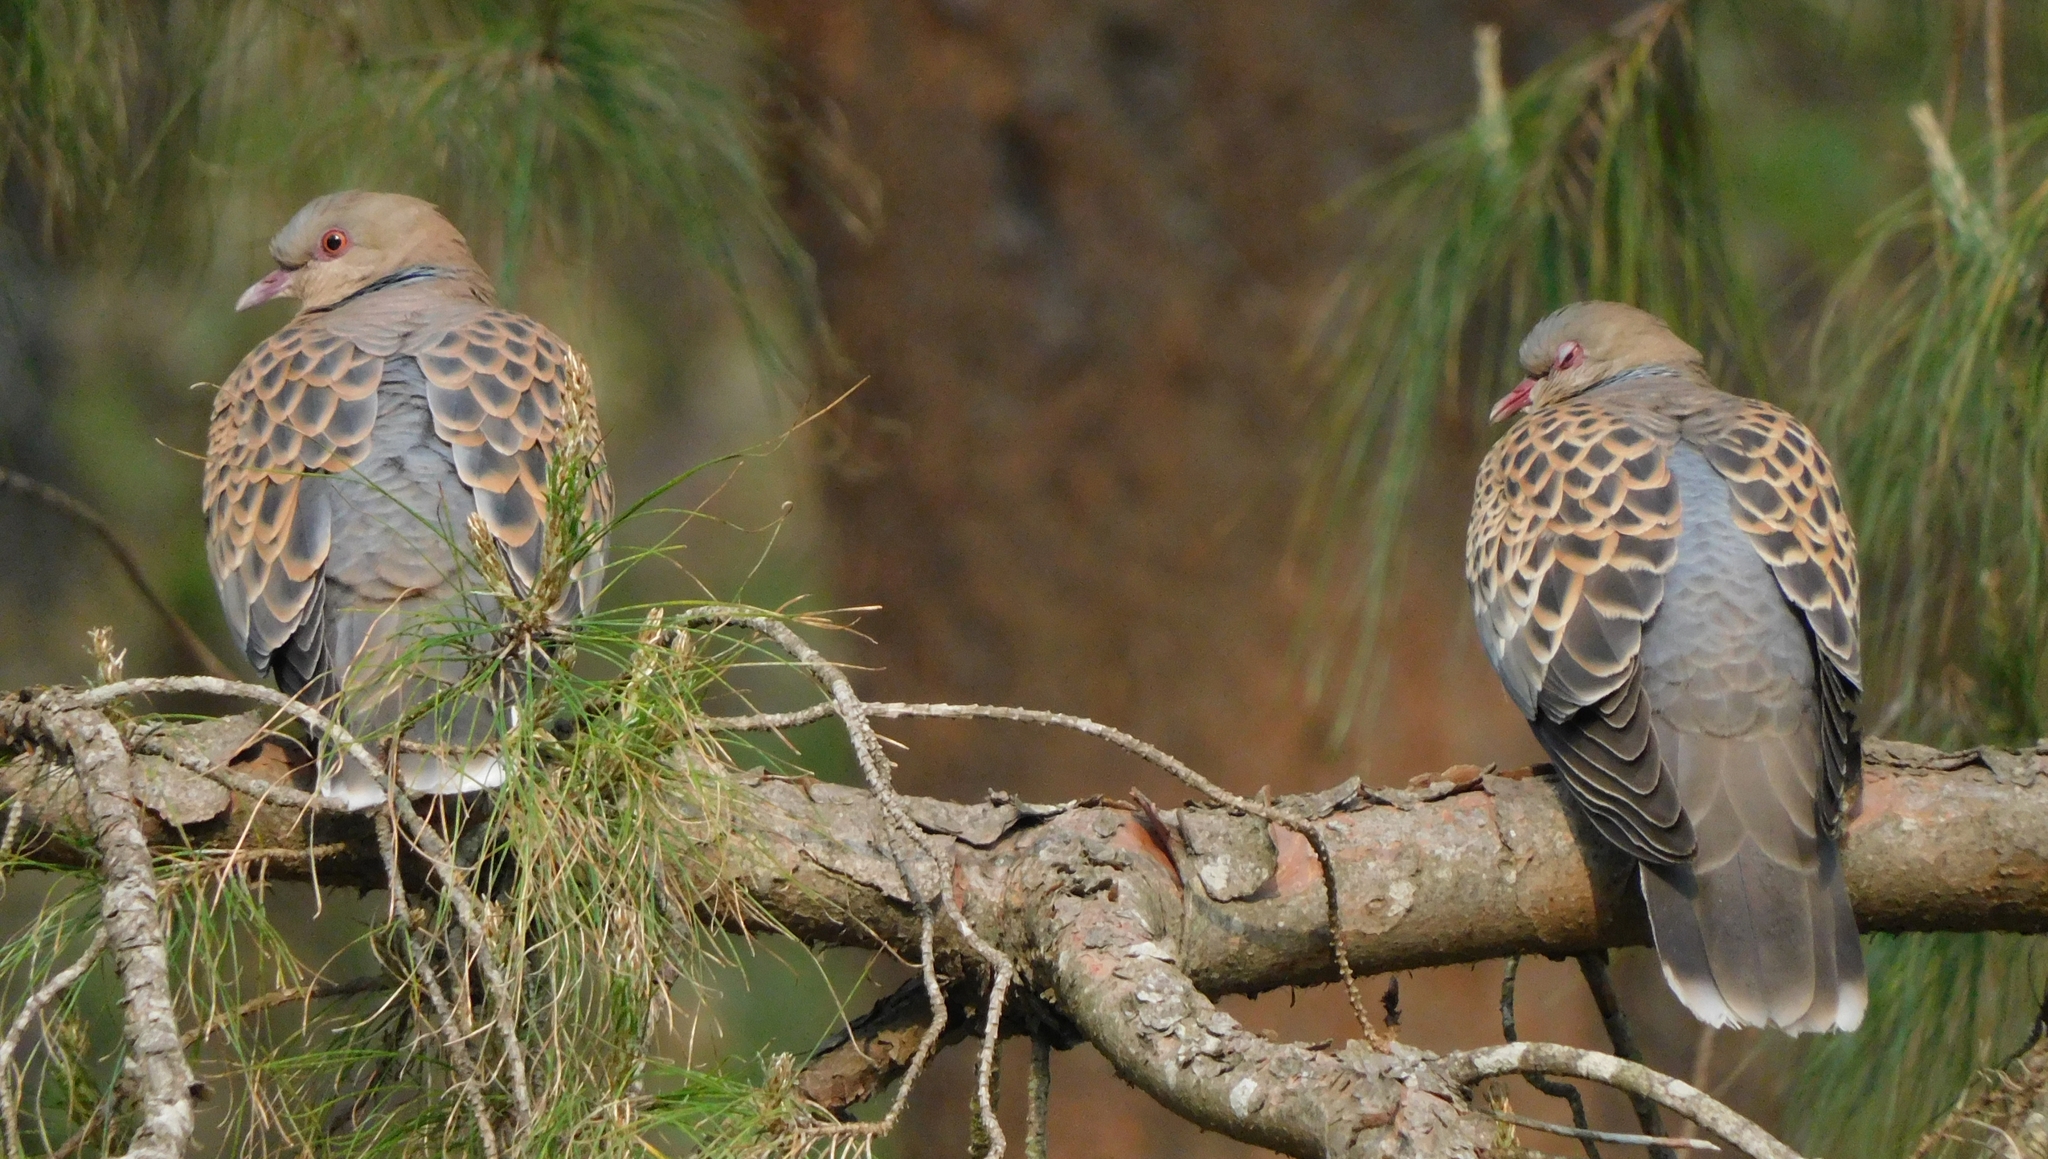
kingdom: Animalia
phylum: Chordata
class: Aves
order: Columbiformes
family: Columbidae
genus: Streptopelia
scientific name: Streptopelia orientalis
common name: Oriental turtle dove
